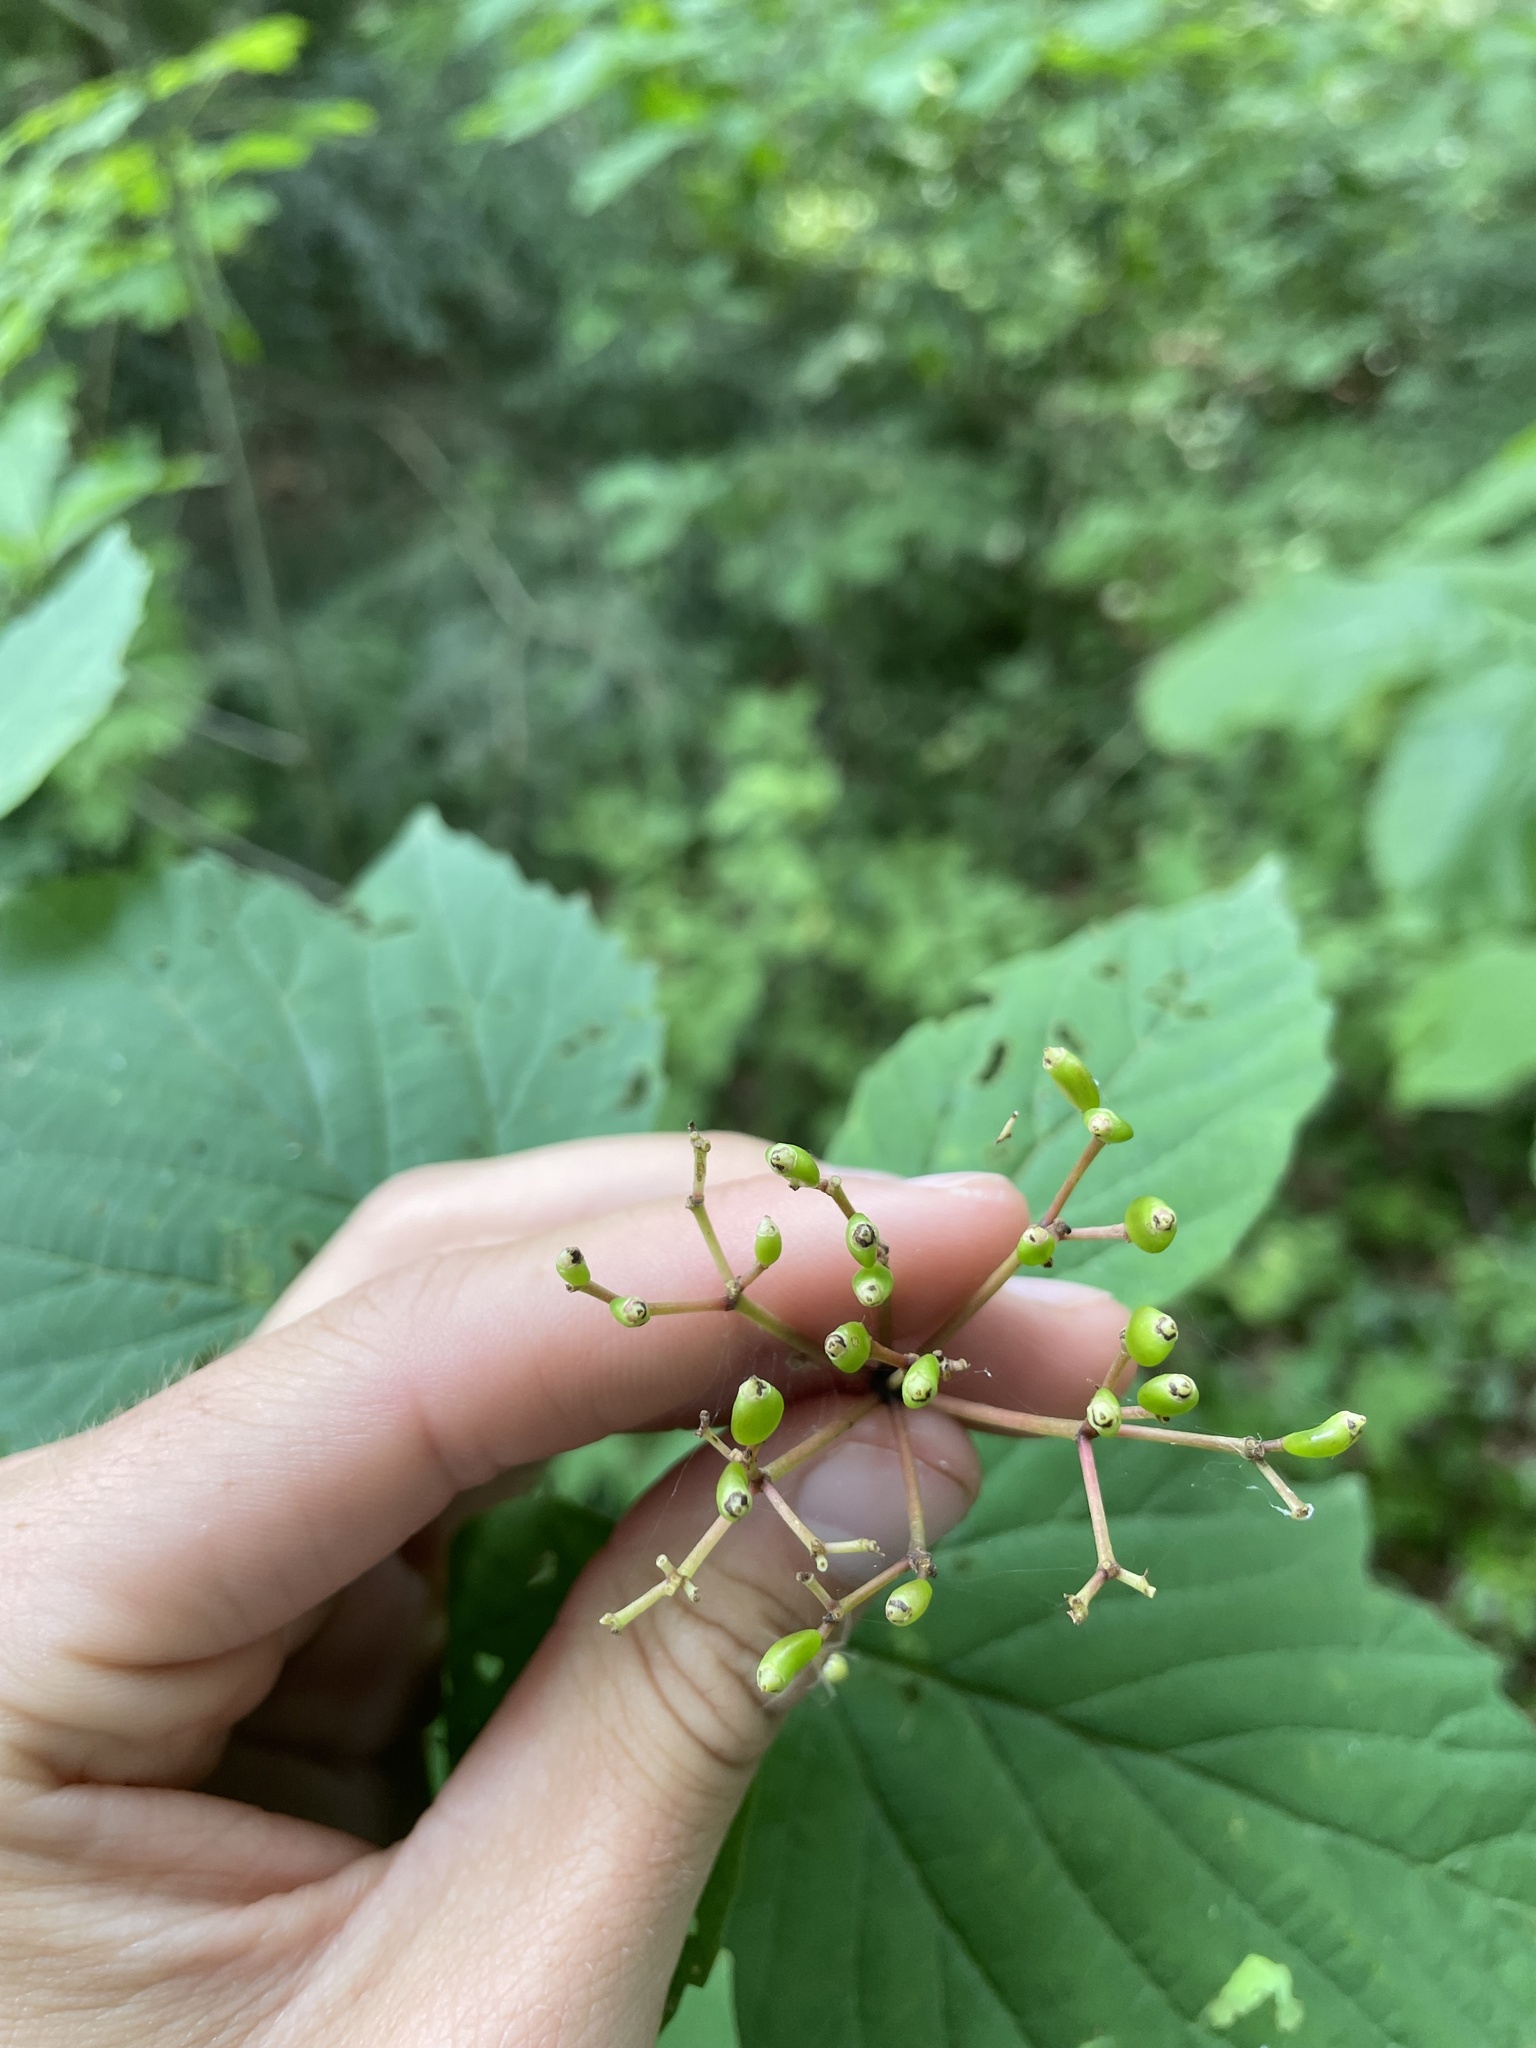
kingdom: Plantae
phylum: Tracheophyta
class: Magnoliopsida
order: Dipsacales
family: Viburnaceae
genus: Viburnum
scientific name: Viburnum acerifolium
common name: Dockmackie
